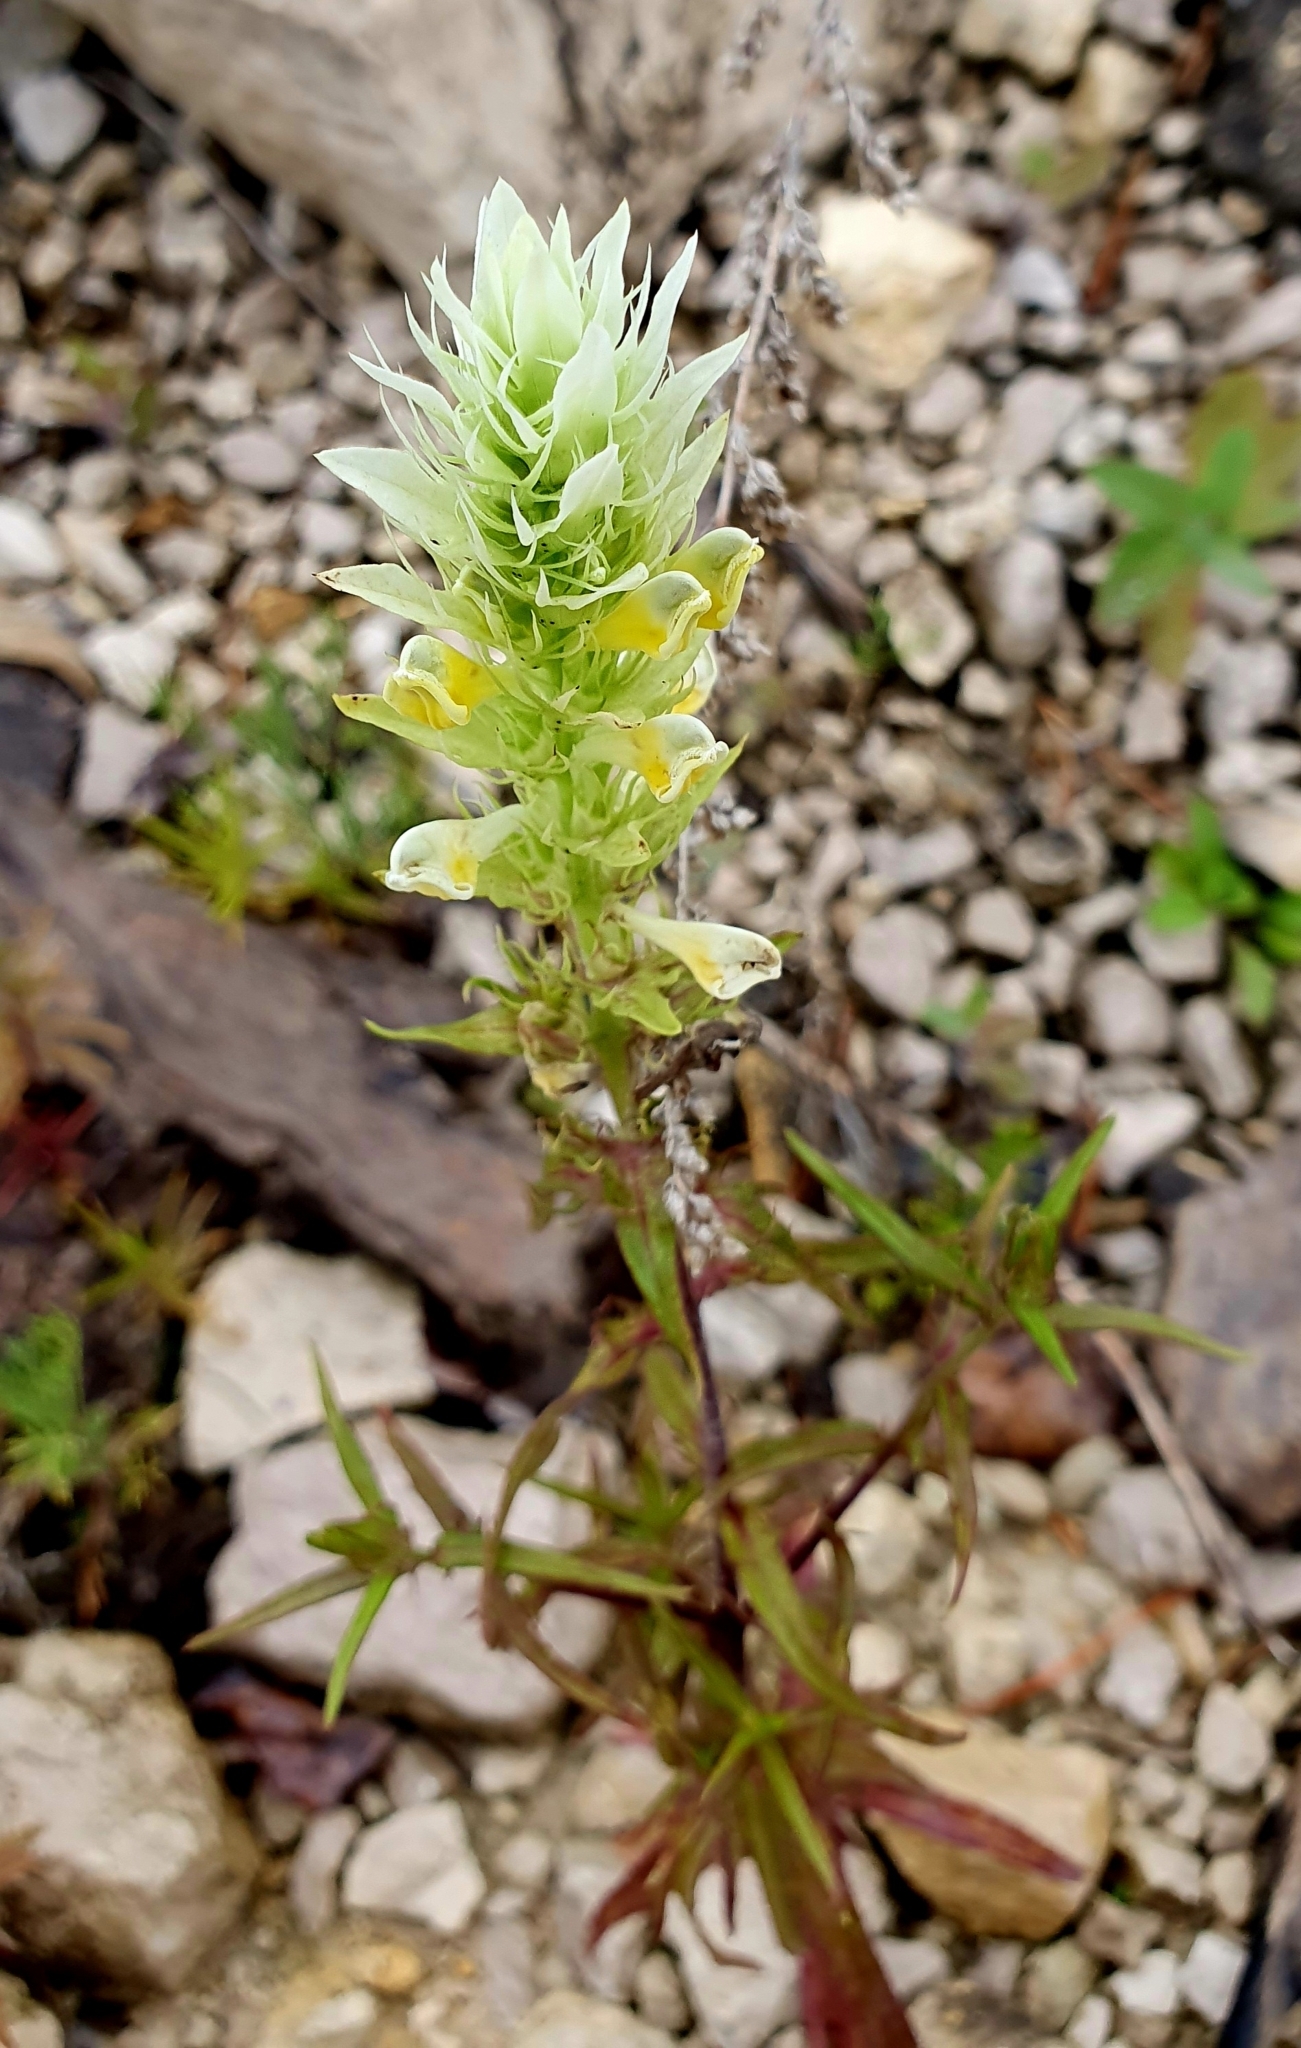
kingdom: Plantae
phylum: Tracheophyta
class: Magnoliopsida
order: Lamiales
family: Orobanchaceae
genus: Melampyrum
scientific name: Melampyrum arvense
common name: Field cow-wheat
